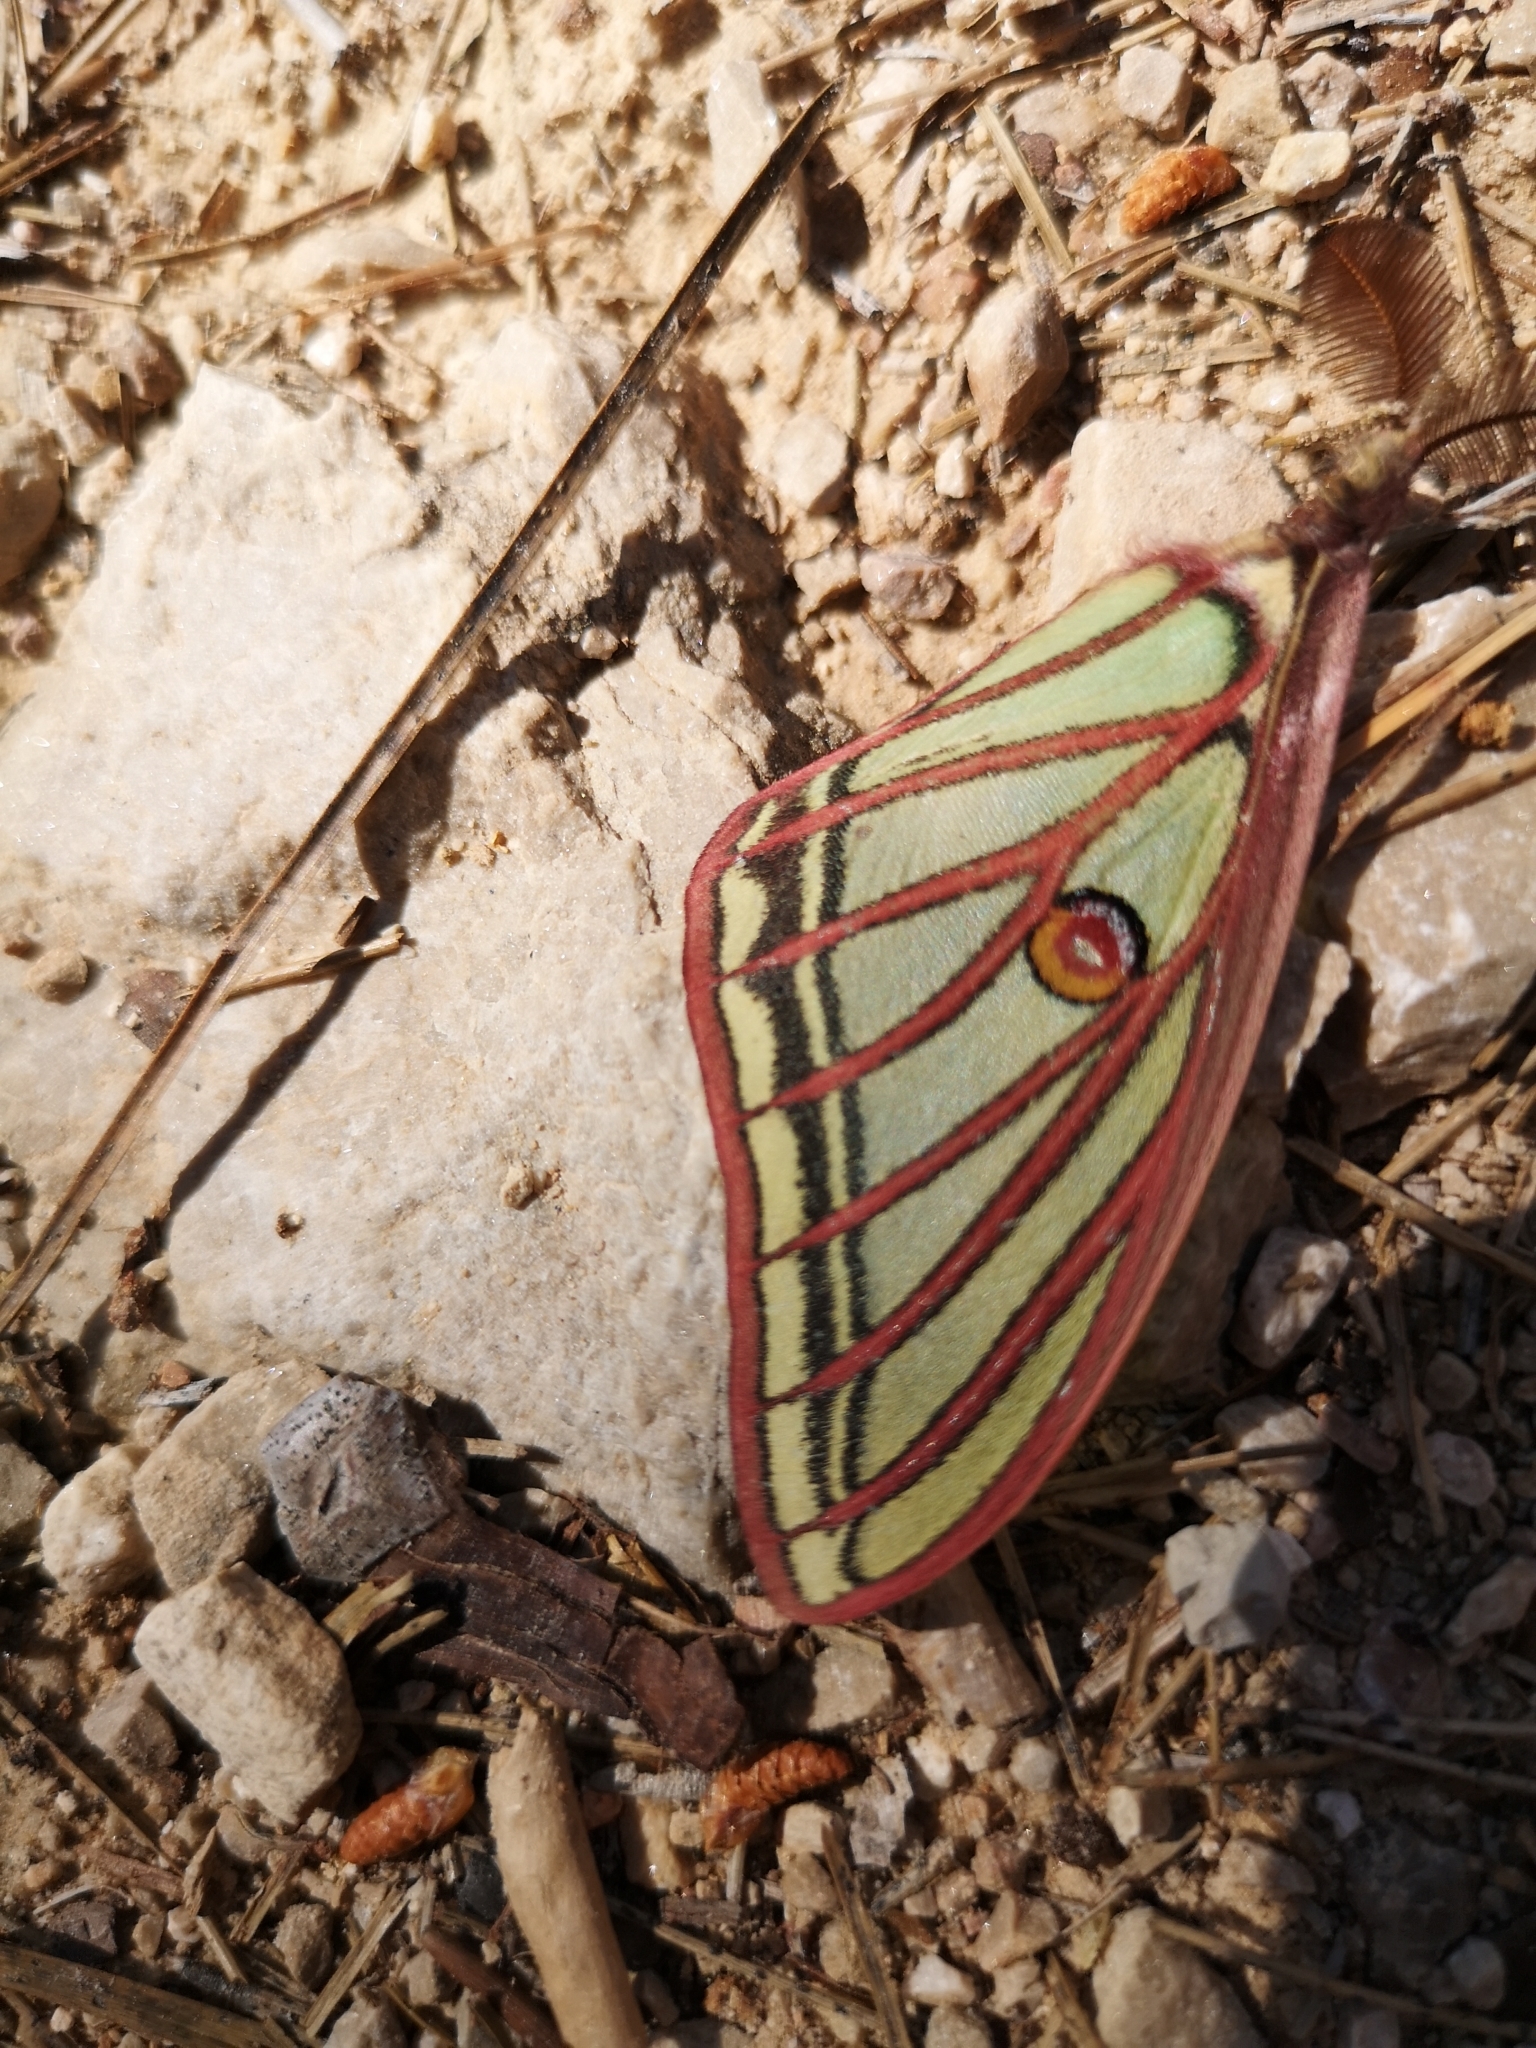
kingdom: Animalia
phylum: Arthropoda
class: Insecta
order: Lepidoptera
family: Saturniidae
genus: Graellsia
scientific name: Graellsia isabellae
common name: Spanish moon moth
